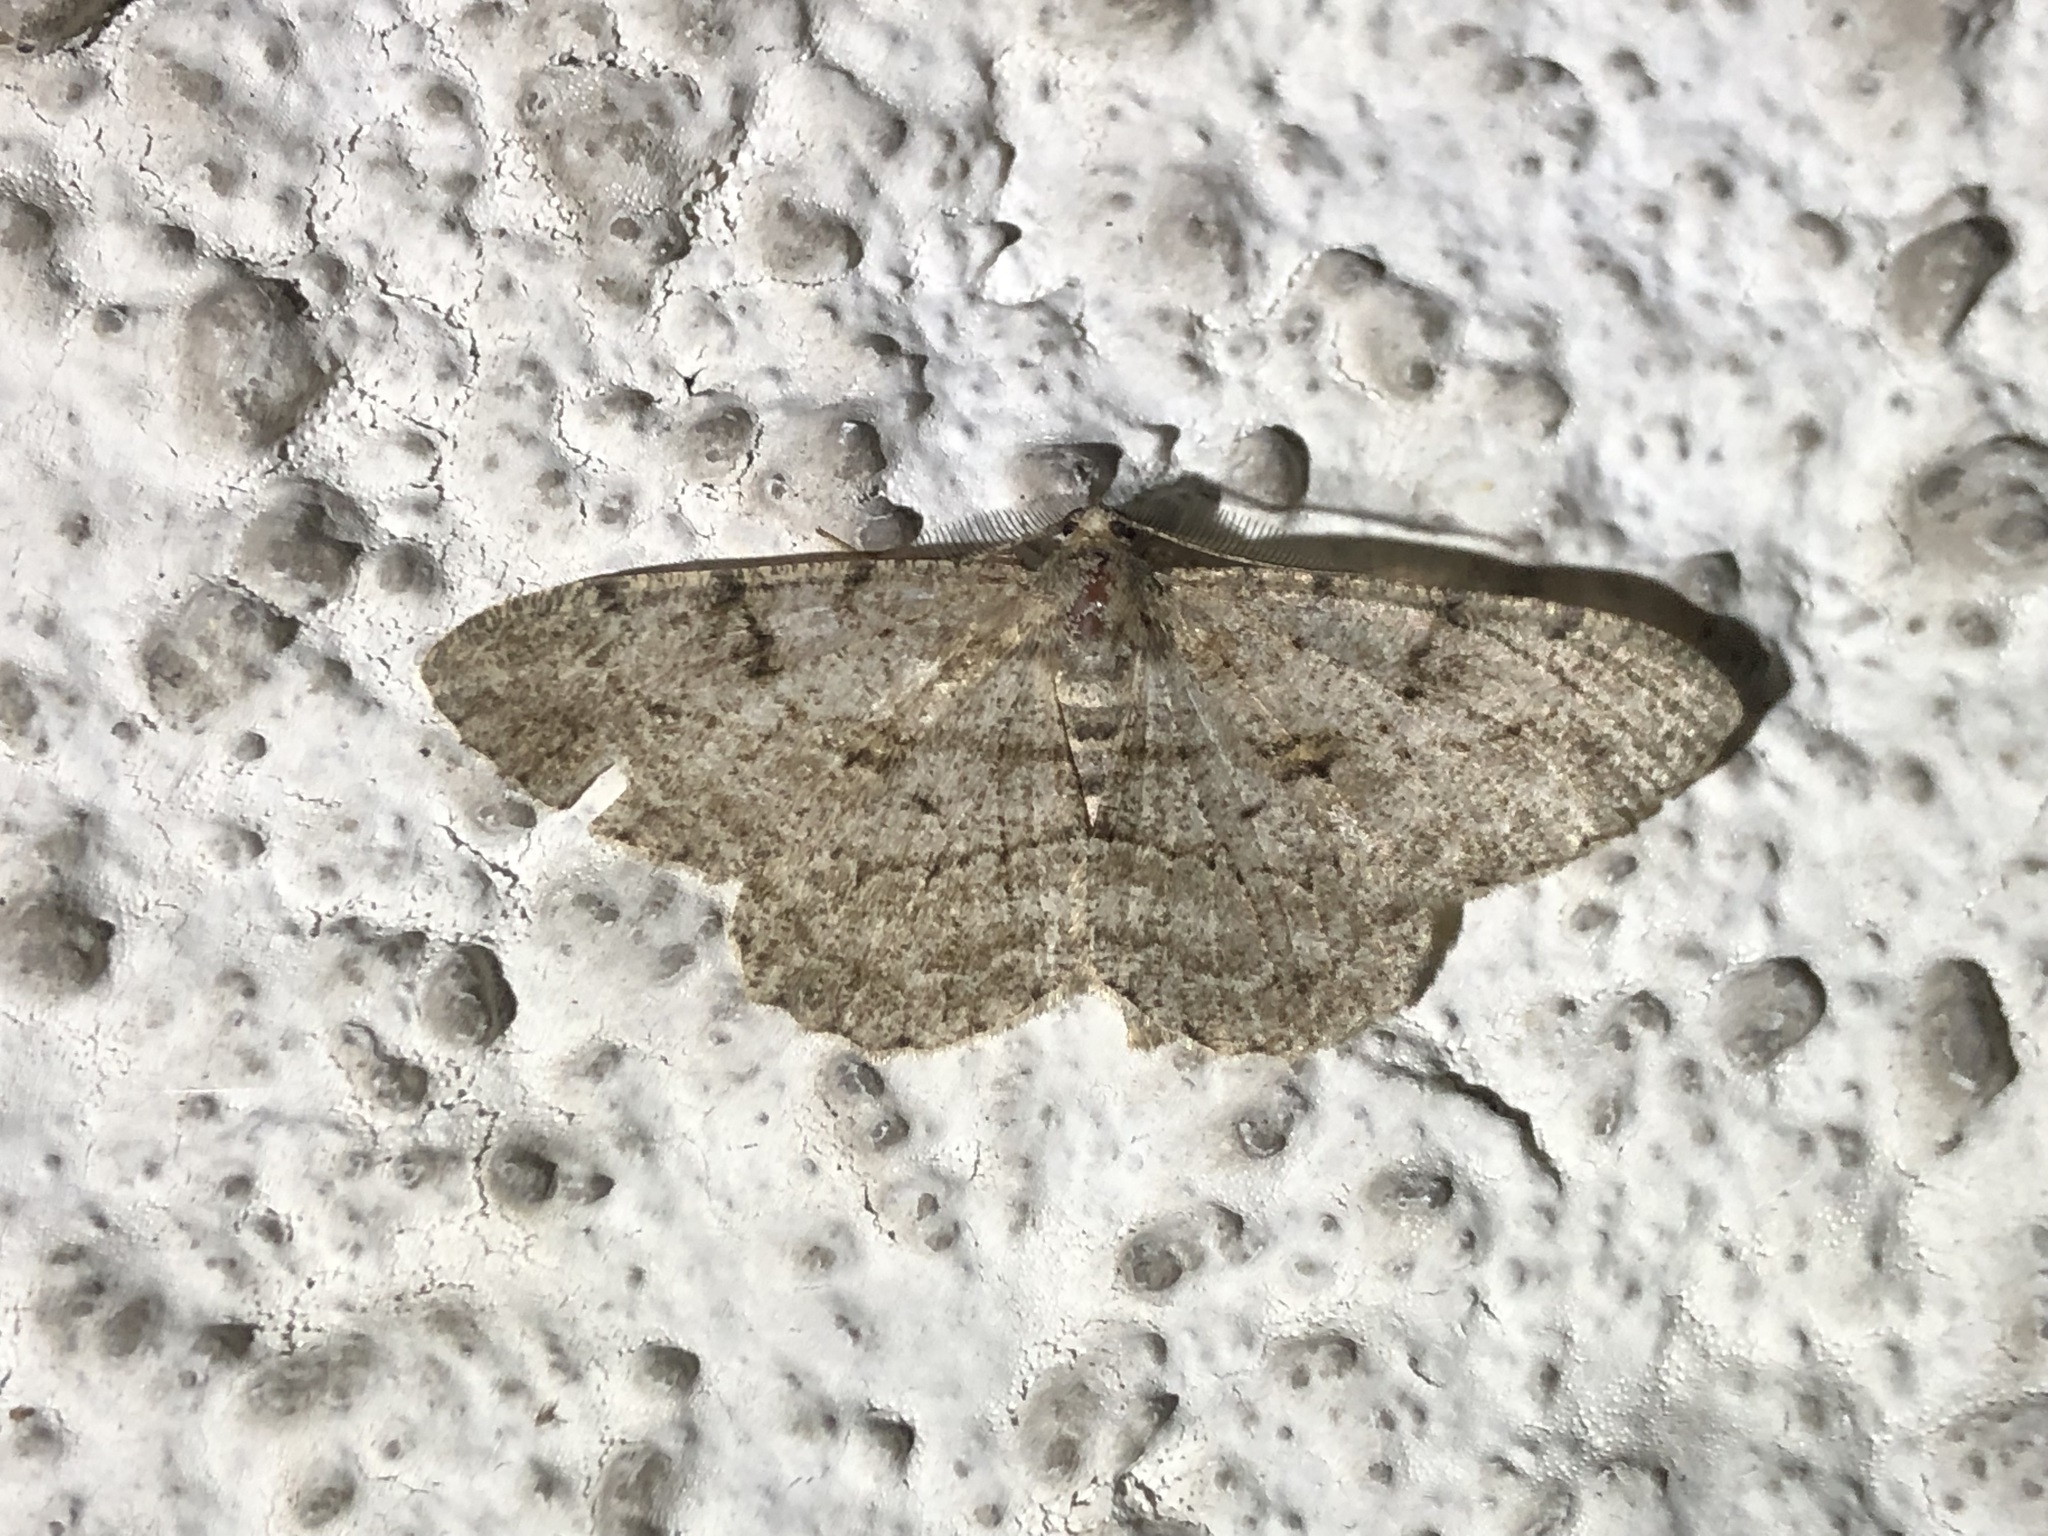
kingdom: Animalia
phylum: Arthropoda
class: Insecta
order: Lepidoptera
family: Geometridae
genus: Peribatodes
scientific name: Peribatodes rhomboidaria
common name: Willow beauty
